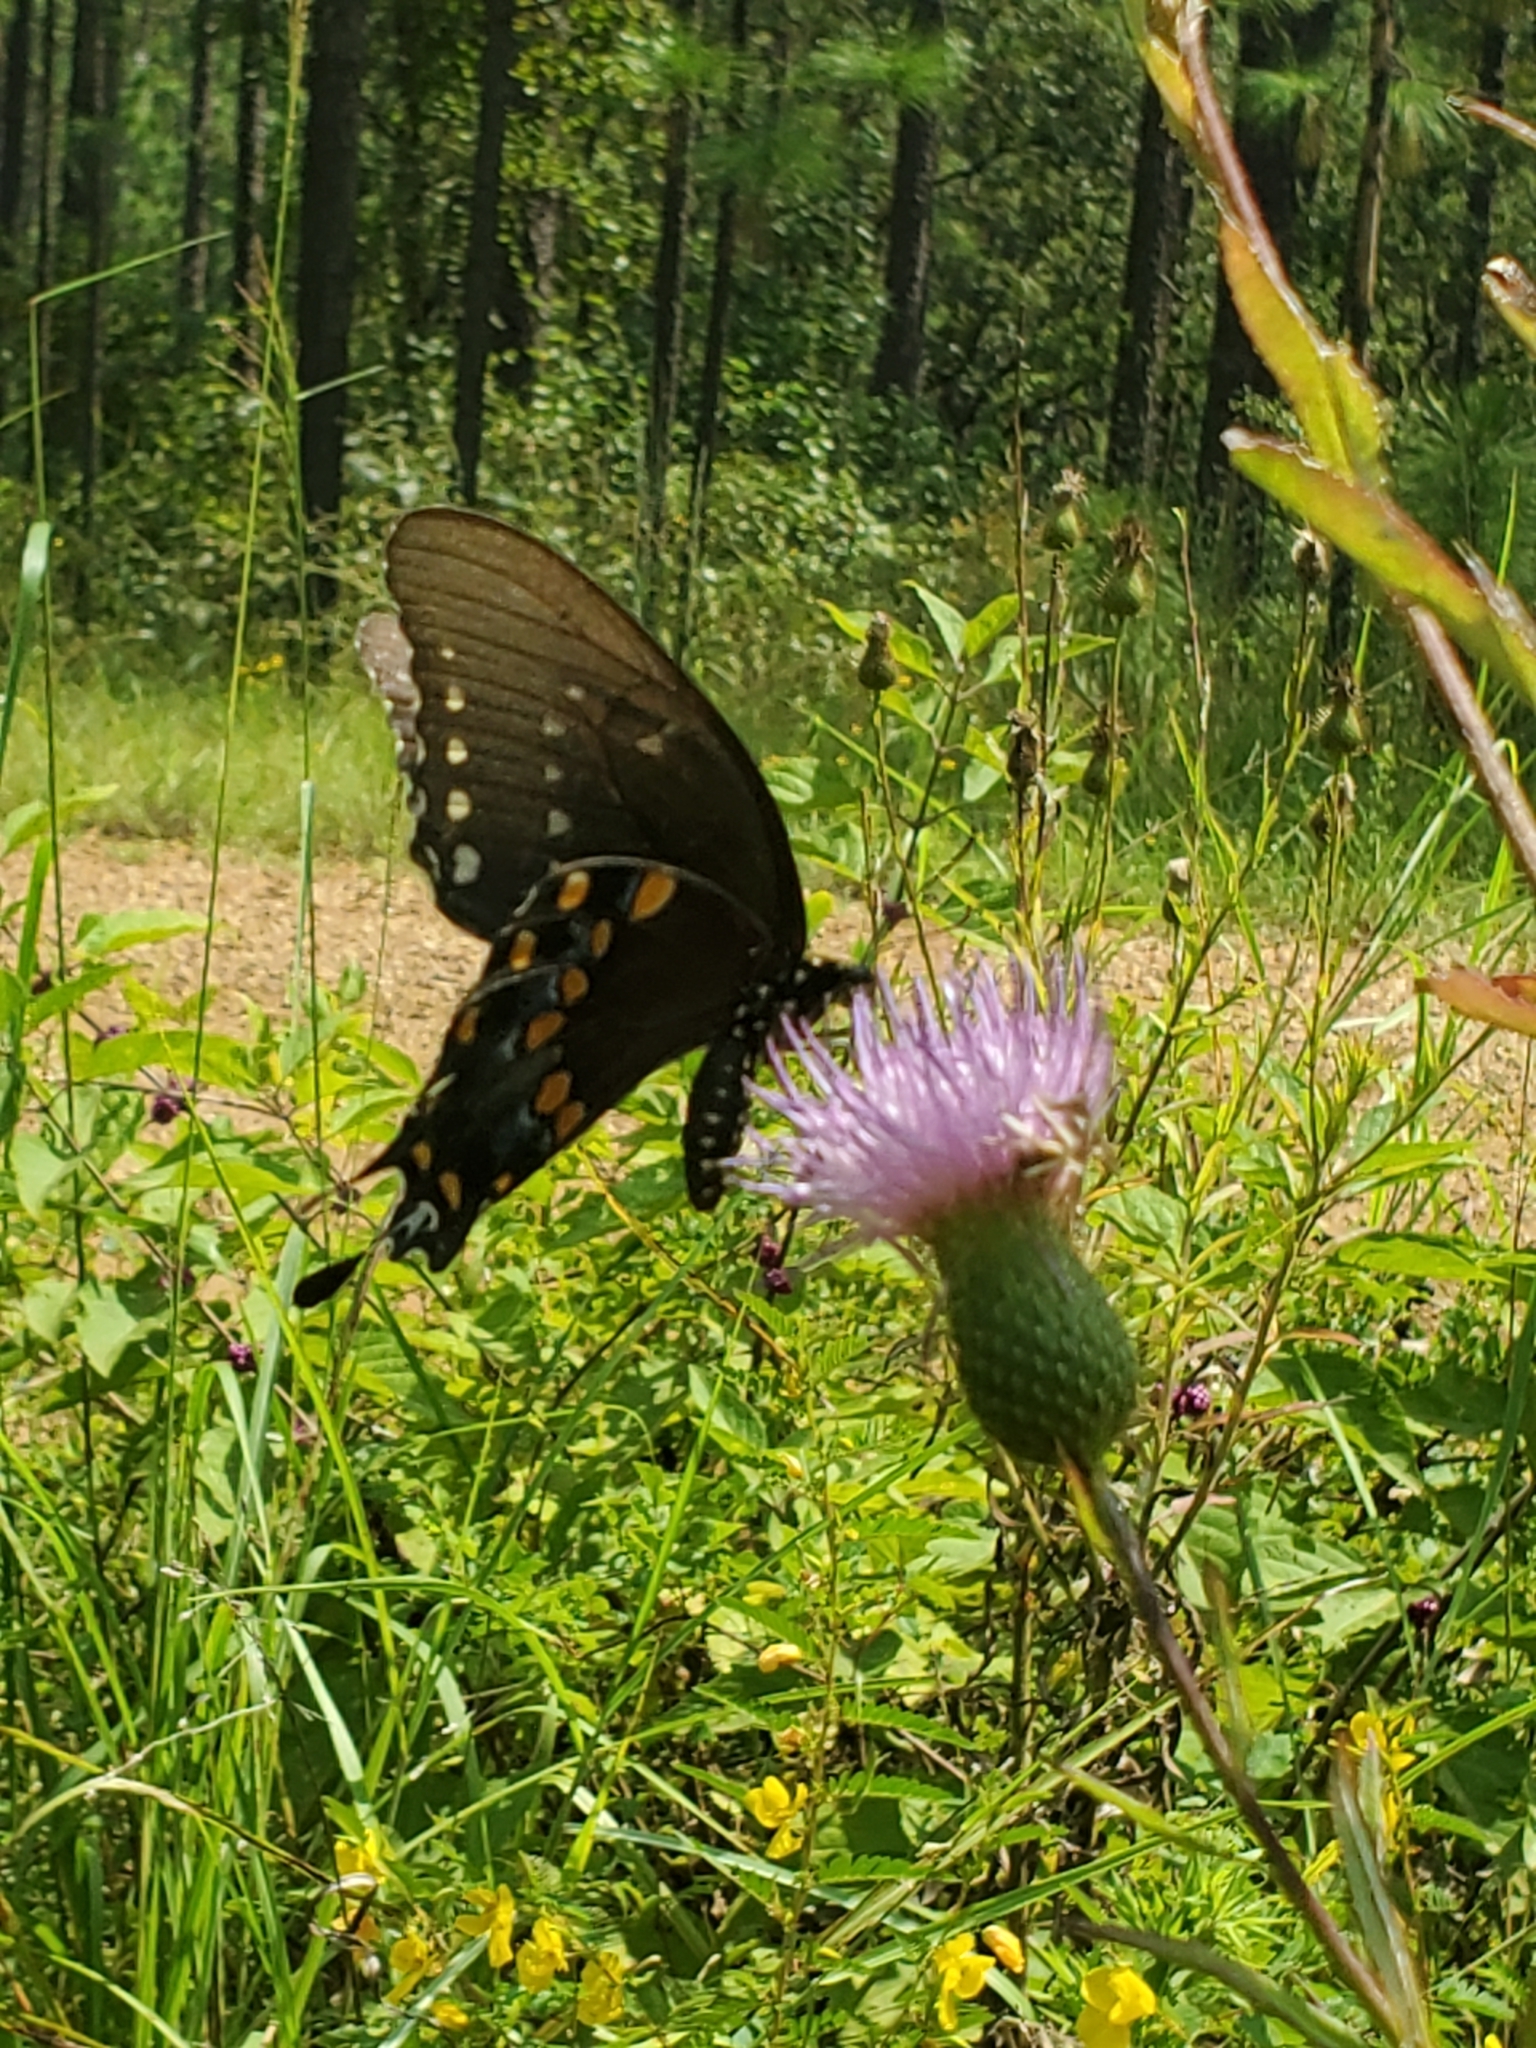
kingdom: Animalia
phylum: Arthropoda
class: Insecta
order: Lepidoptera
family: Papilionidae
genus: Papilio
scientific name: Papilio troilus
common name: Spicebush swallowtail
